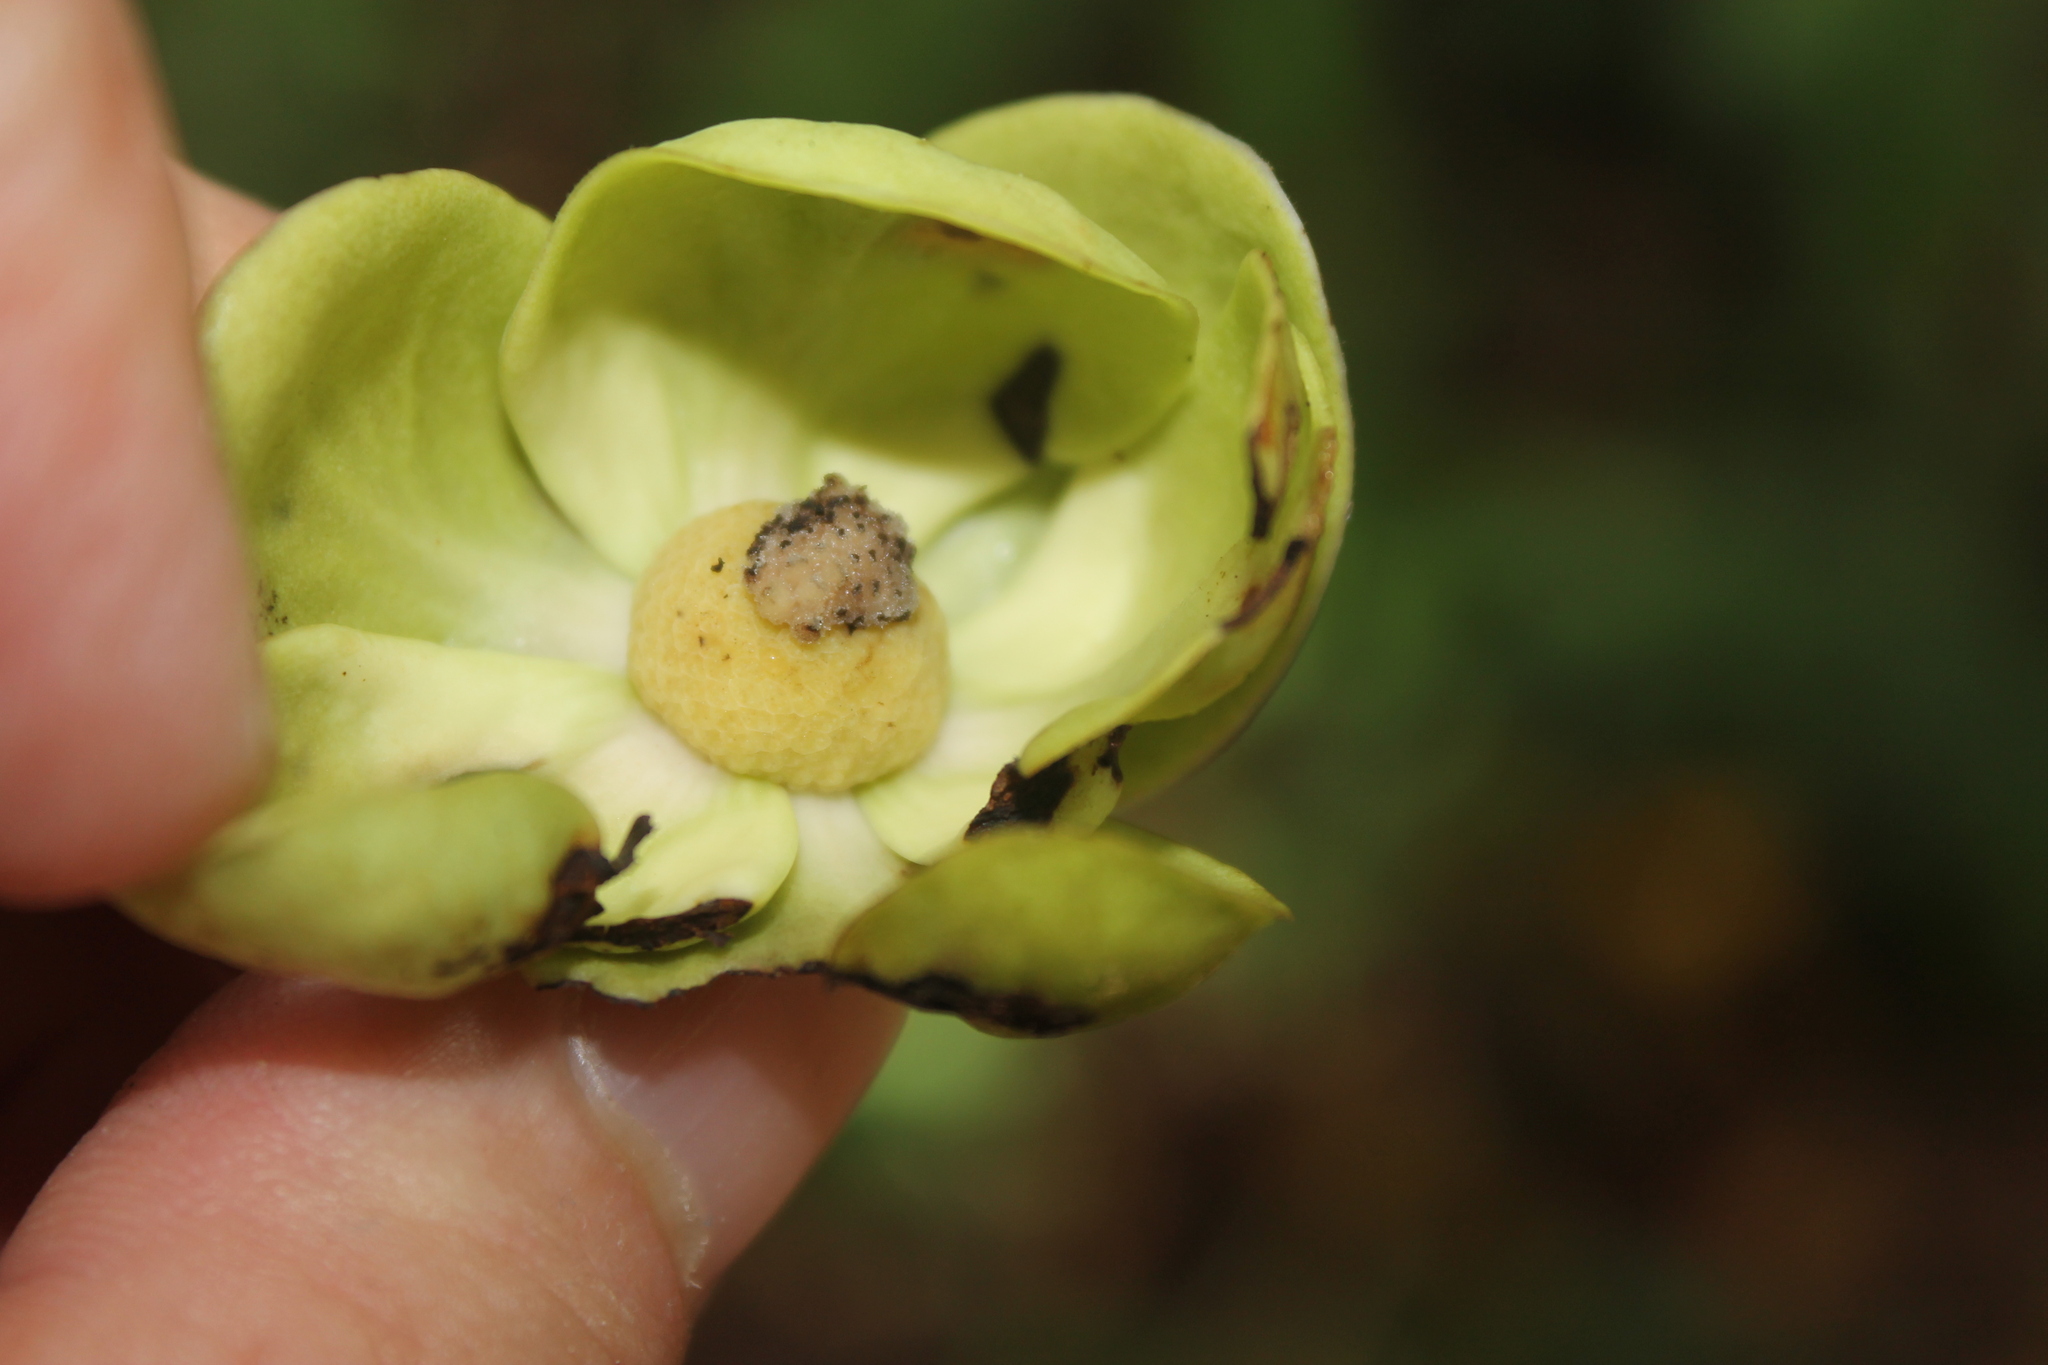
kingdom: Plantae
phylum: Tracheophyta
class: Magnoliopsida
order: Magnoliales
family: Annonaceae
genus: Cymbopetalum
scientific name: Cymbopetalum hintonii
